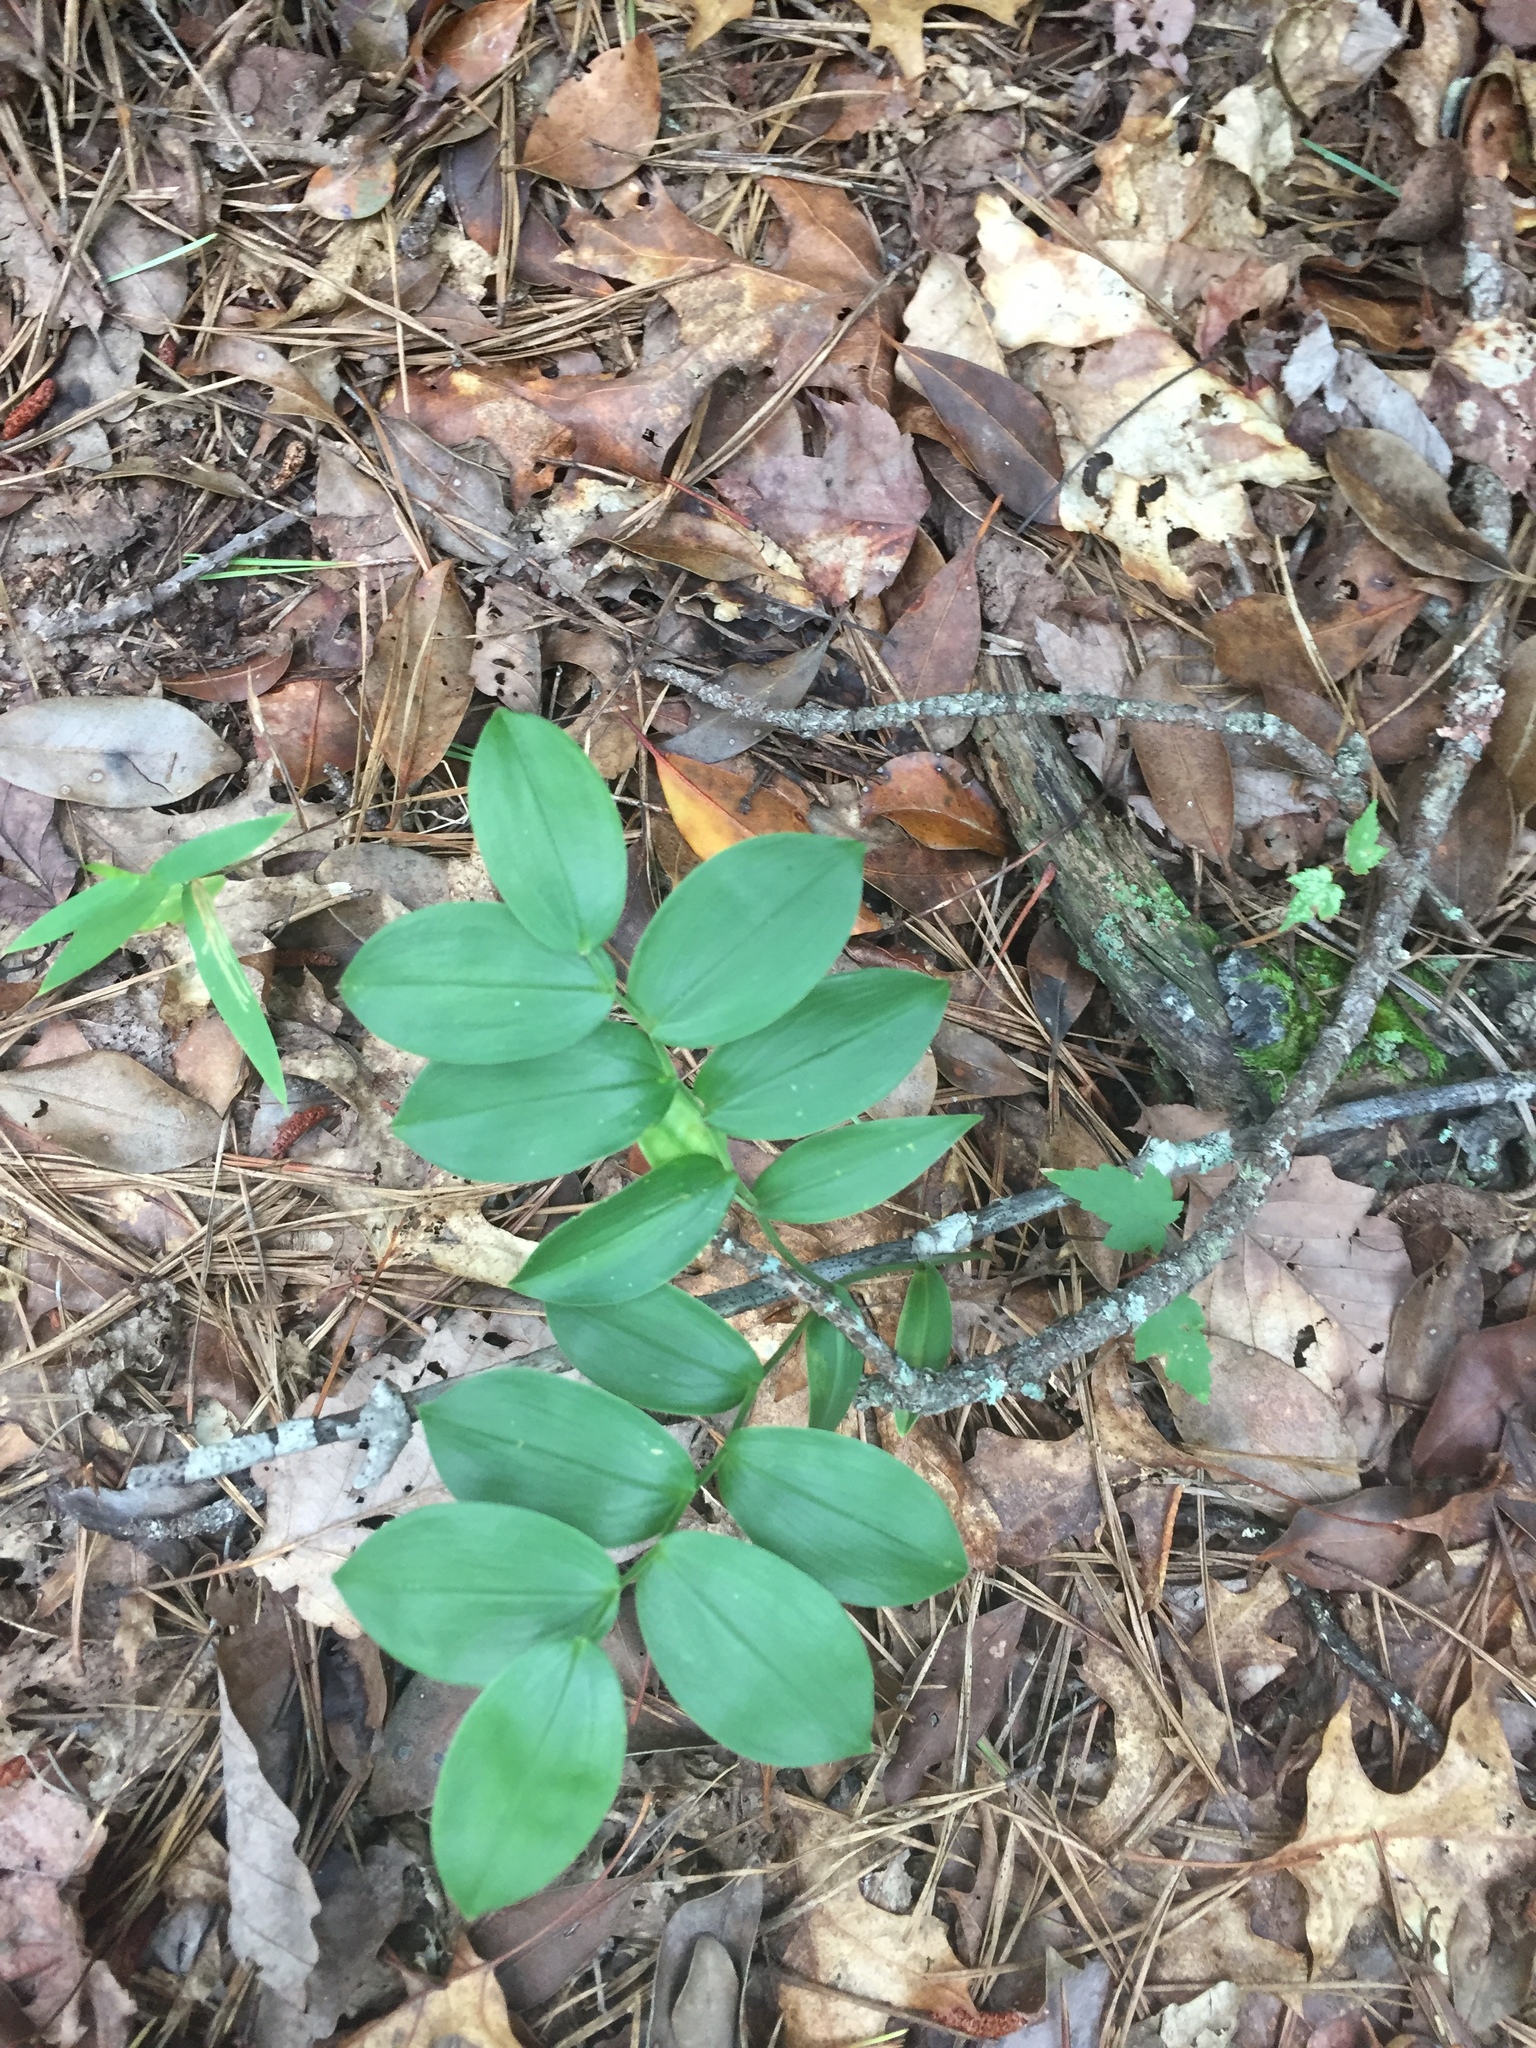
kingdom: Plantae
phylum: Tracheophyta
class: Liliopsida
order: Liliales
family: Colchicaceae
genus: Uvularia
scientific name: Uvularia puberula
